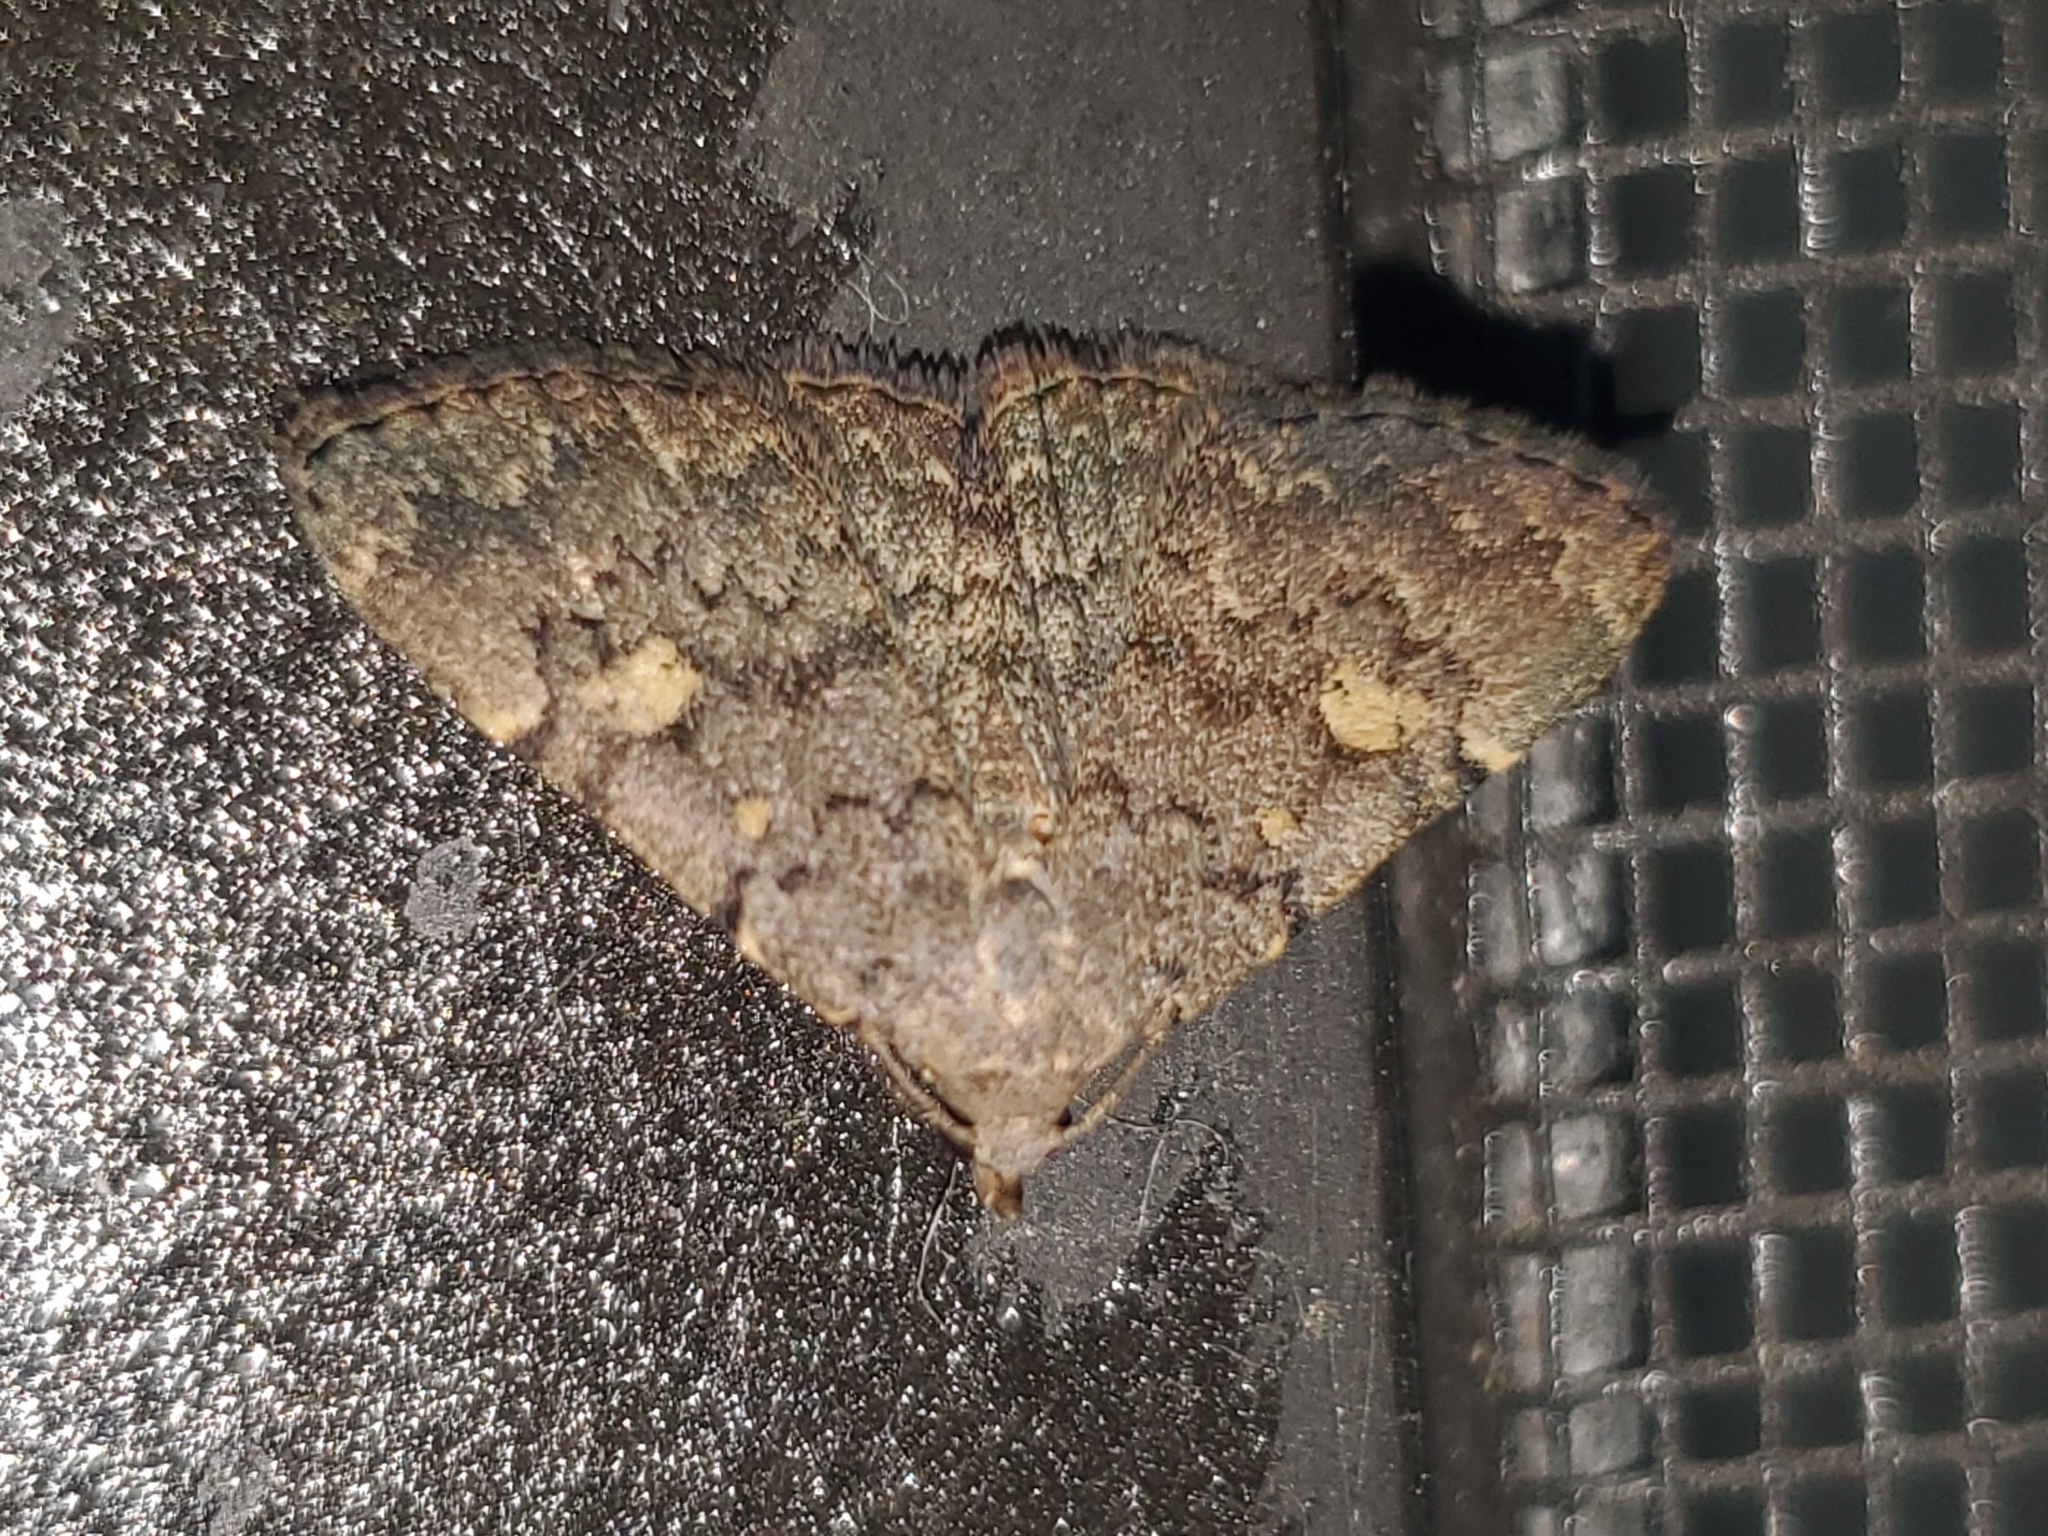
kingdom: Animalia
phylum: Arthropoda
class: Insecta
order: Lepidoptera
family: Erebidae
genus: Idia
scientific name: Idia aemula
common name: Common idia moth
